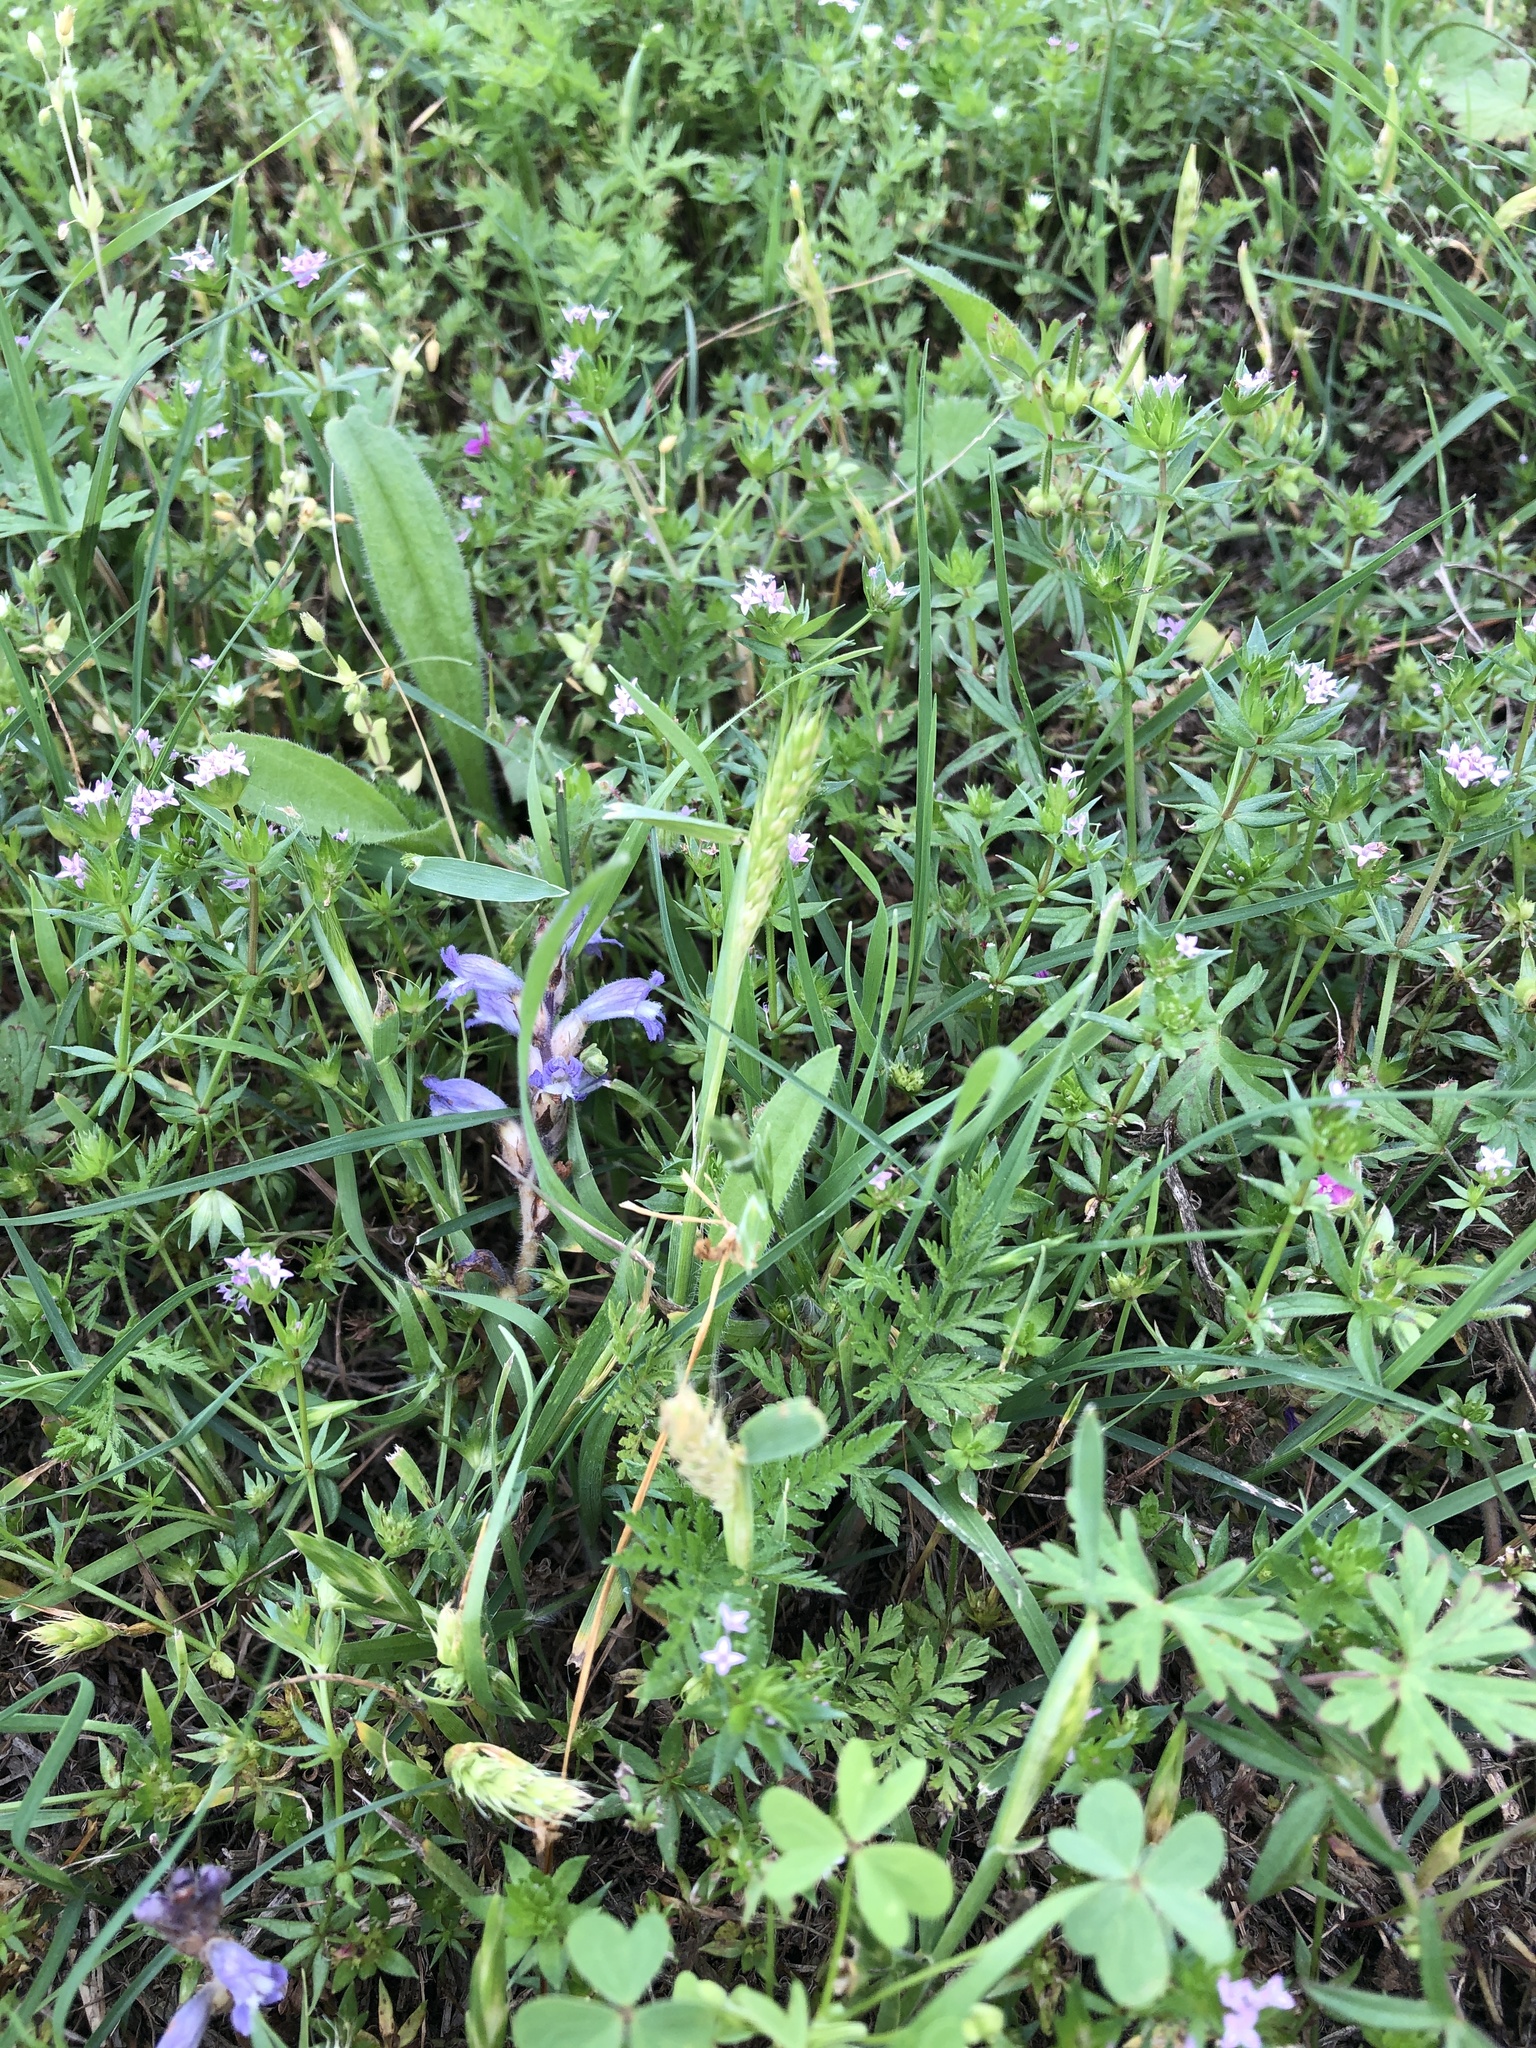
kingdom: Plantae
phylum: Tracheophyta
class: Liliopsida
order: Poales
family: Poaceae
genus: Hordeum
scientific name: Hordeum pusillum
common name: Little barley
